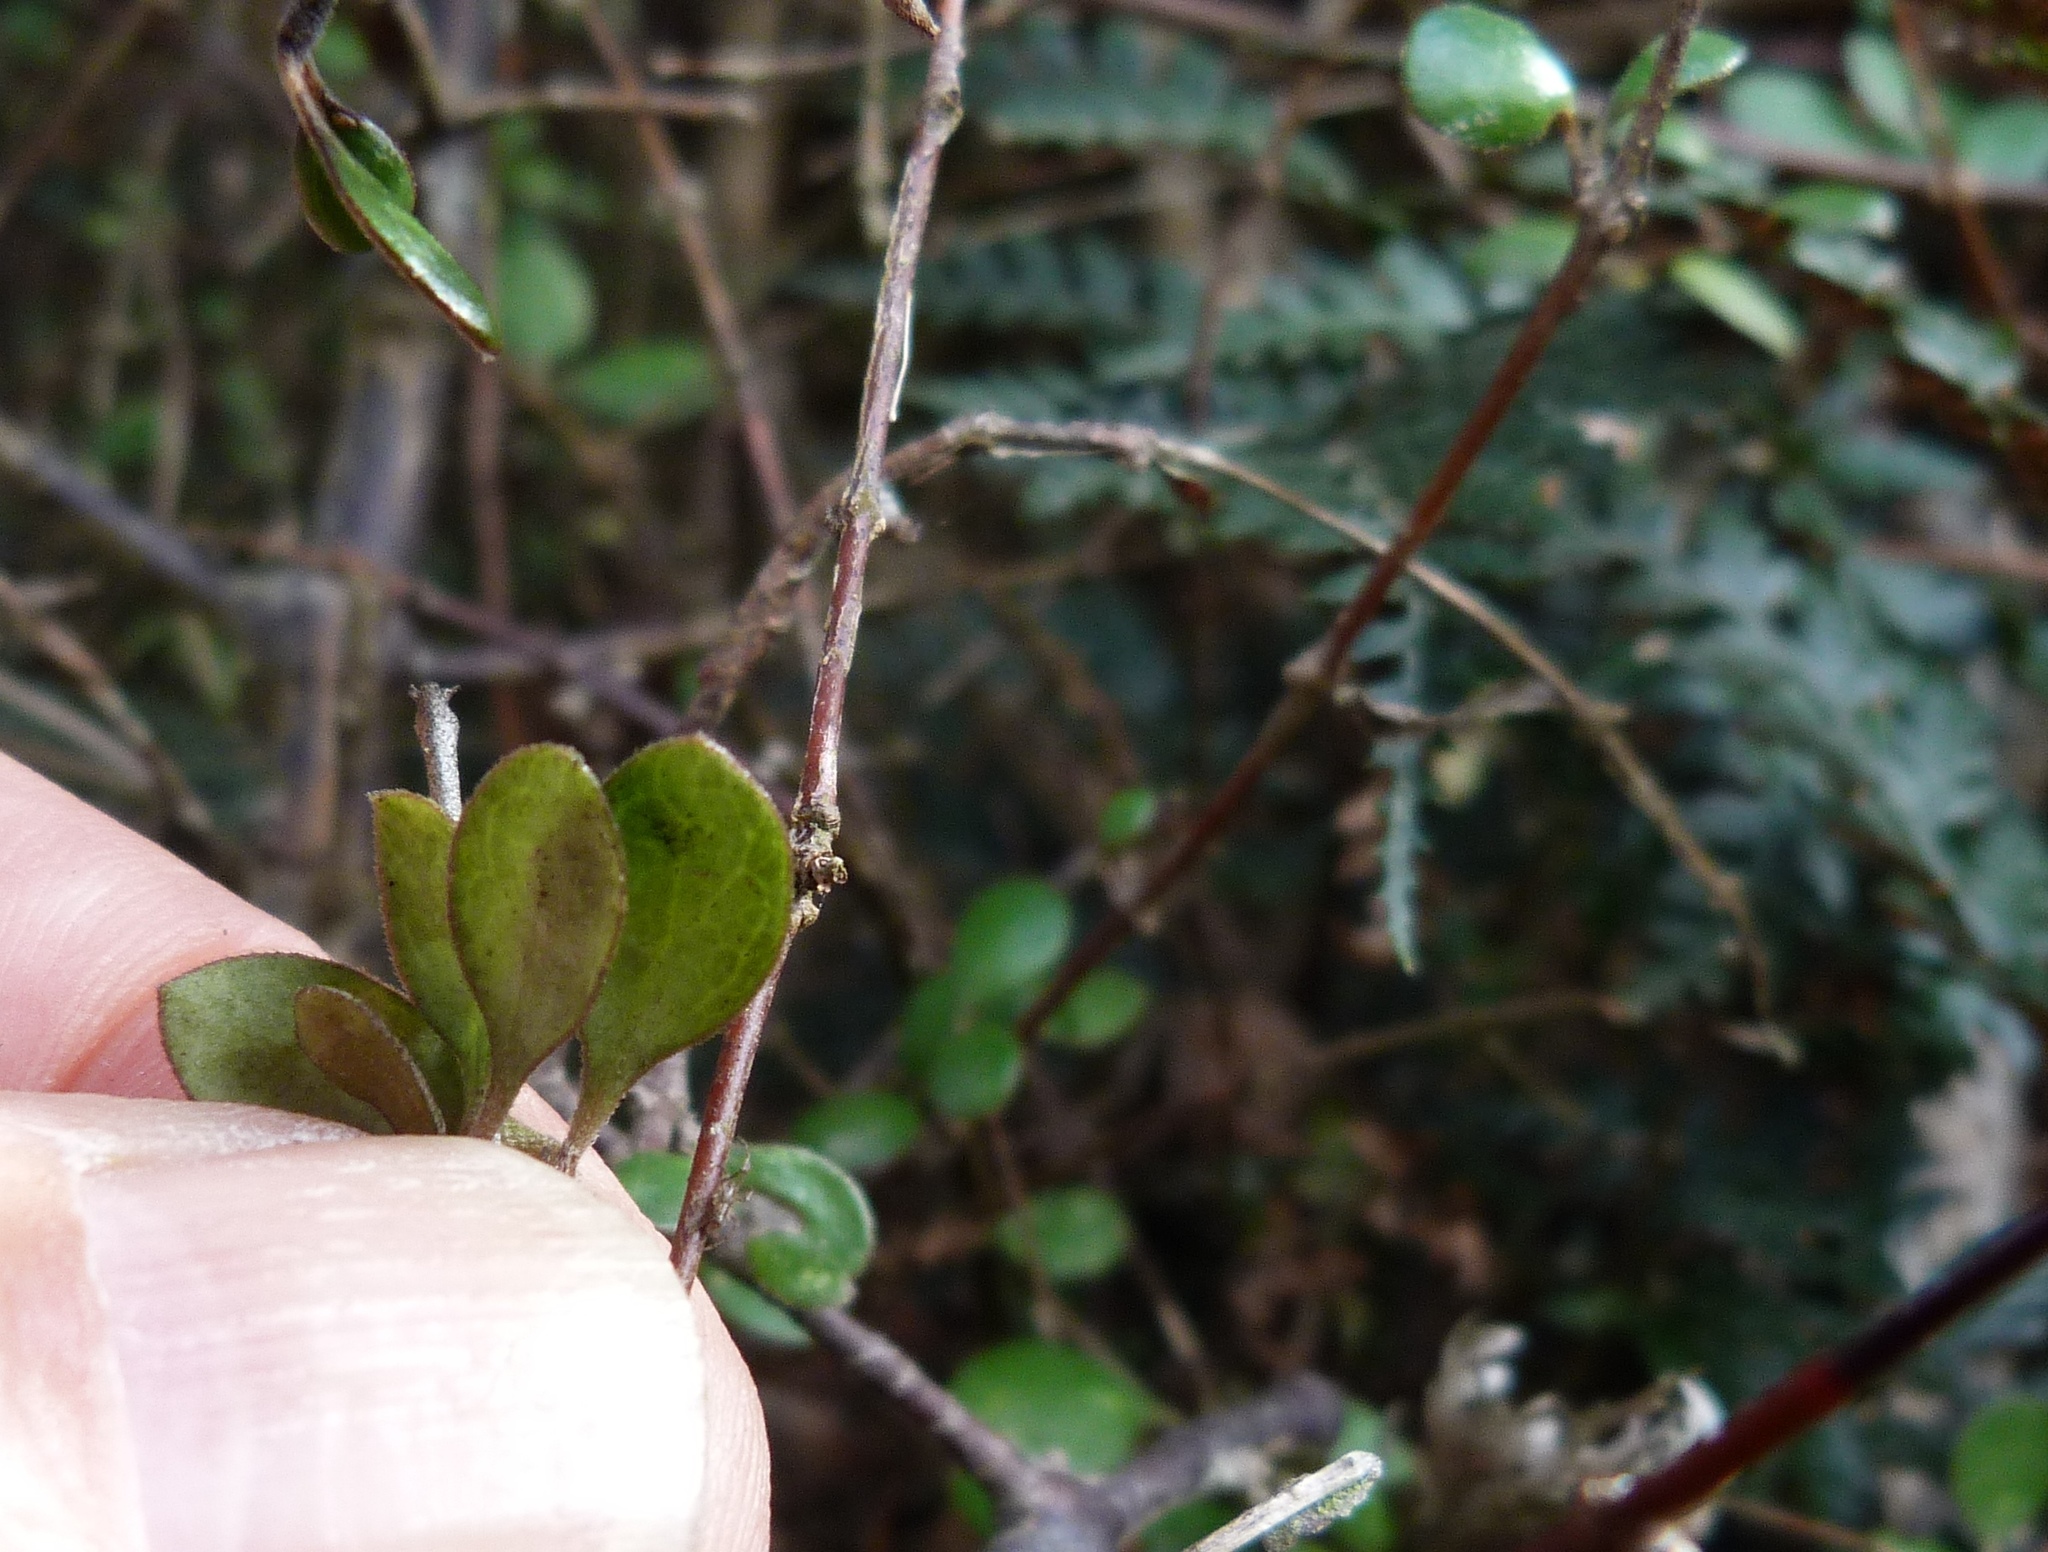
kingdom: Plantae
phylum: Tracheophyta
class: Magnoliopsida
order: Gentianales
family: Rubiaceae
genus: Coprosma
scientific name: Coprosma crassifolia
